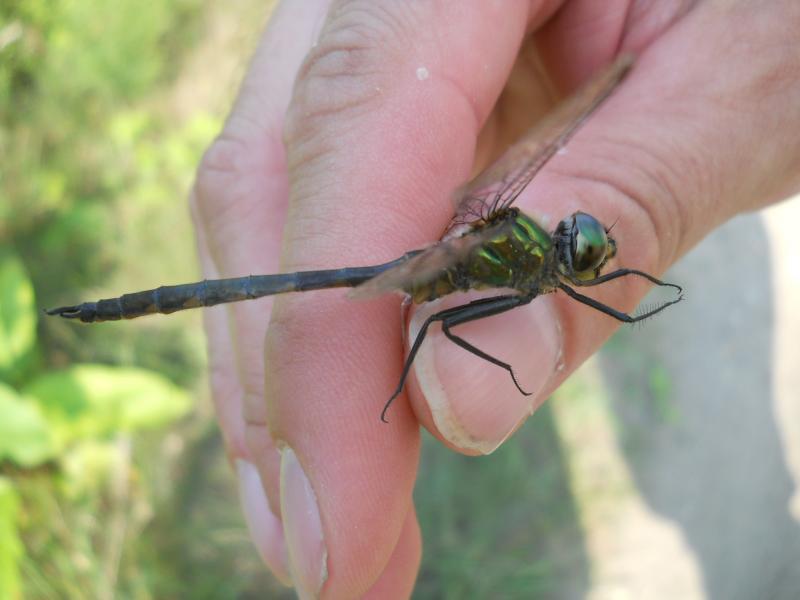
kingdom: Animalia
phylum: Arthropoda
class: Insecta
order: Odonata
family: Corduliidae
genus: Somatochlora
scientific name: Somatochlora flavomaculata
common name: Yellow-spotted emerald
